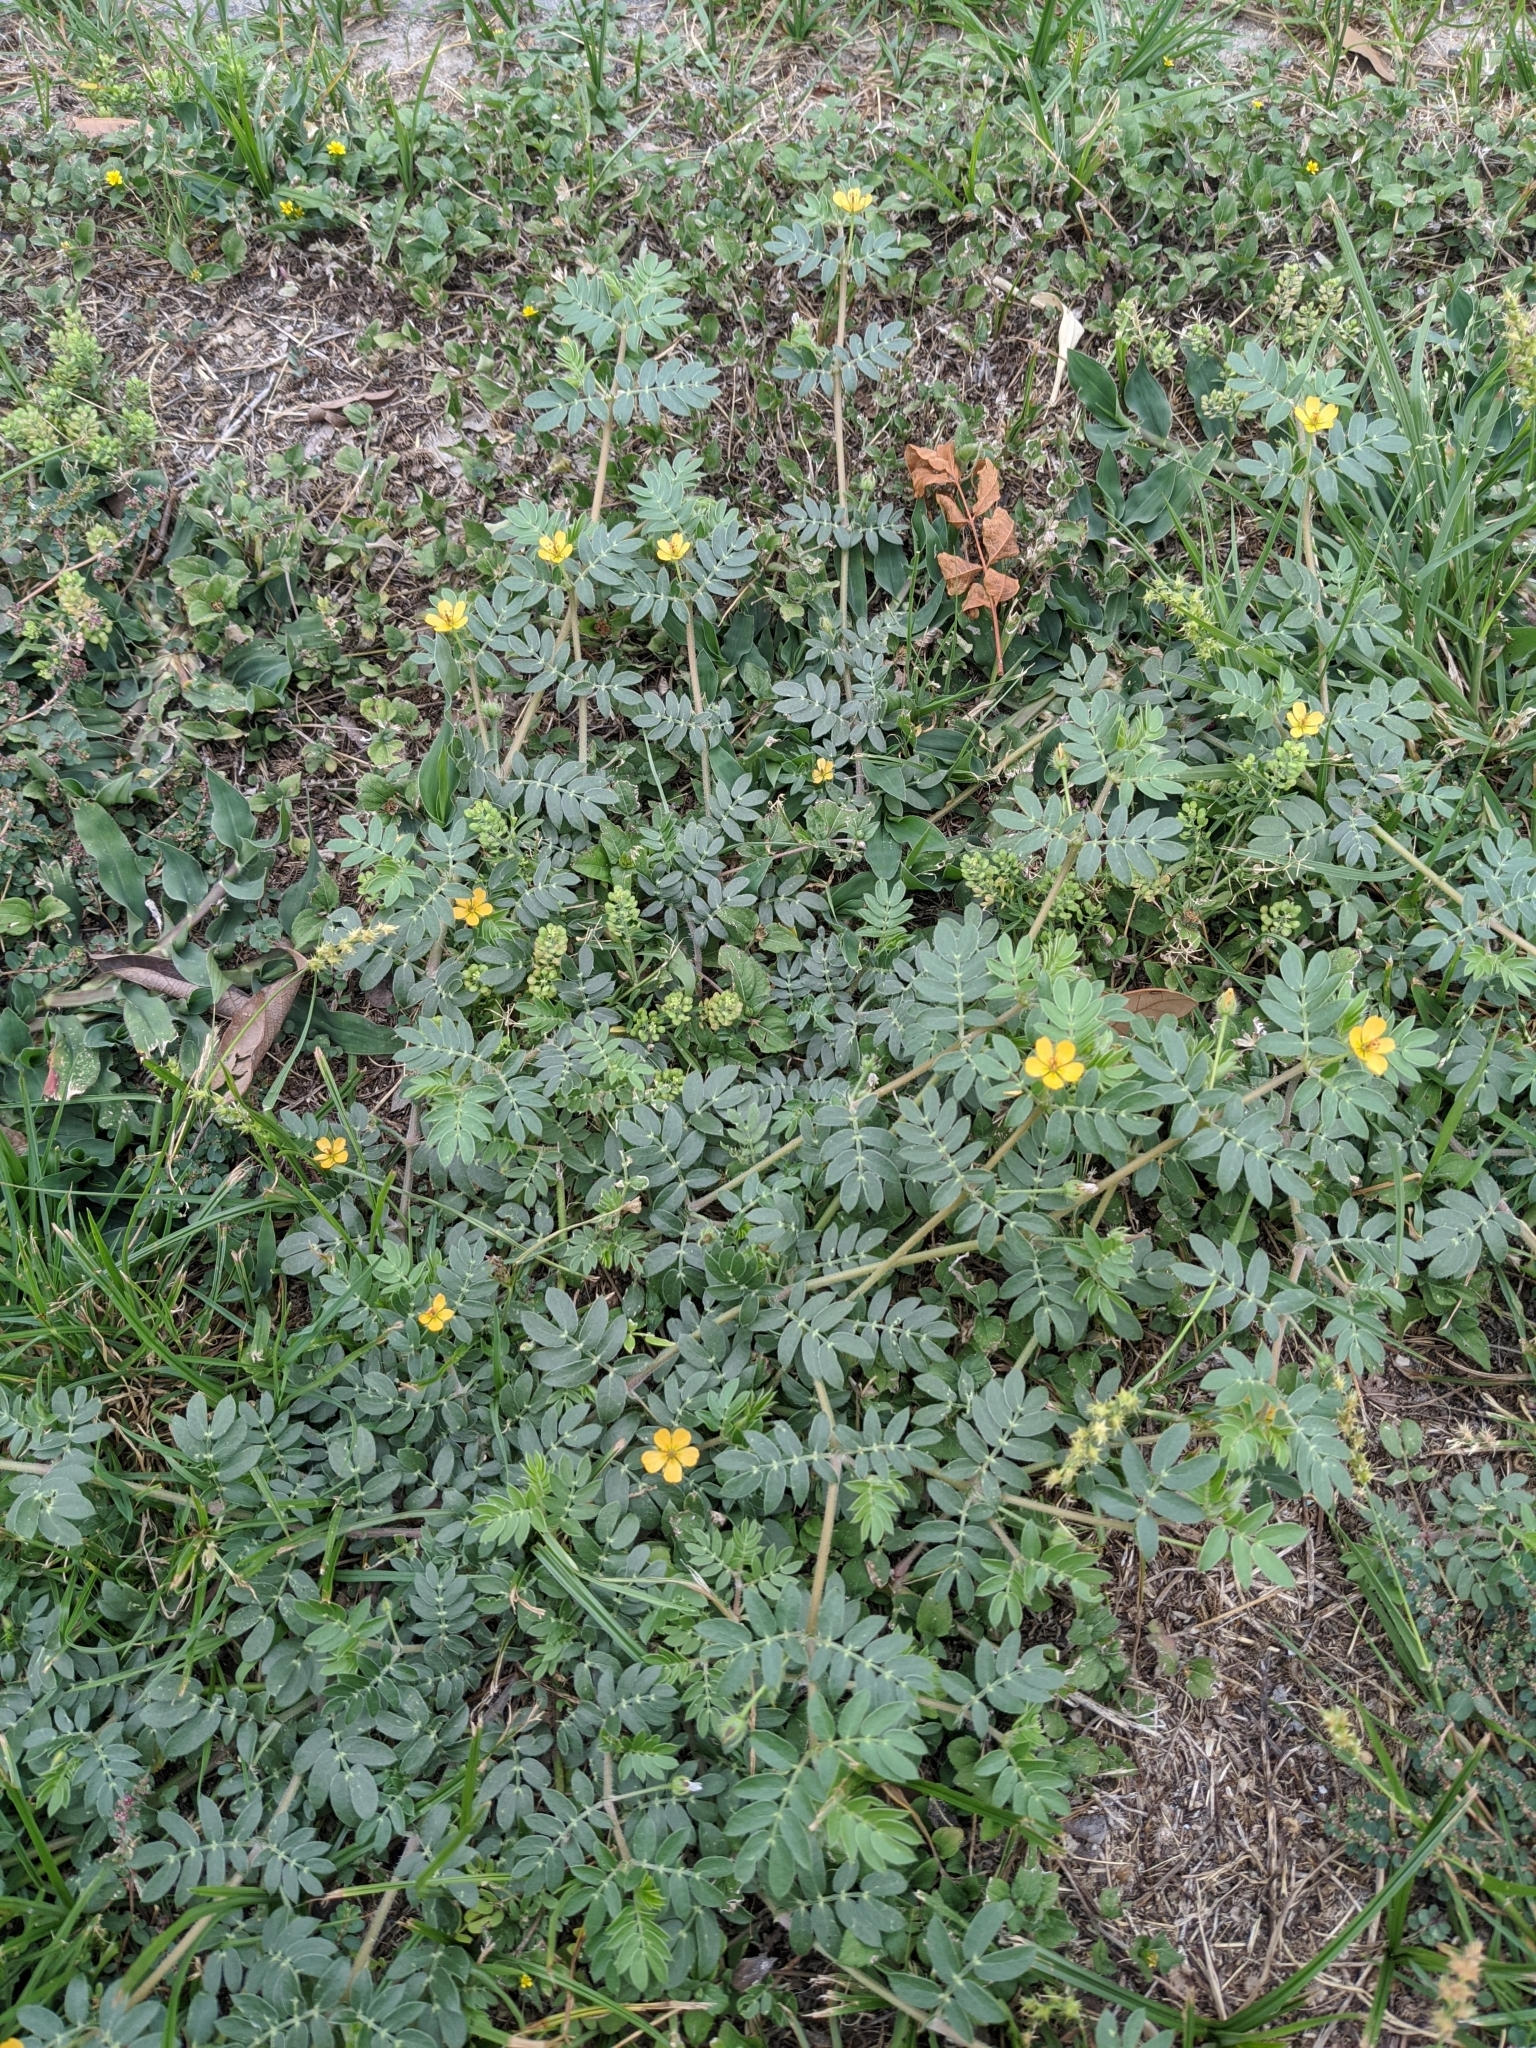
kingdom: Plantae
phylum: Tracheophyta
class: Magnoliopsida
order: Zygophyllales
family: Zygophyllaceae
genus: Kallstroemia
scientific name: Kallstroemia parviflora
